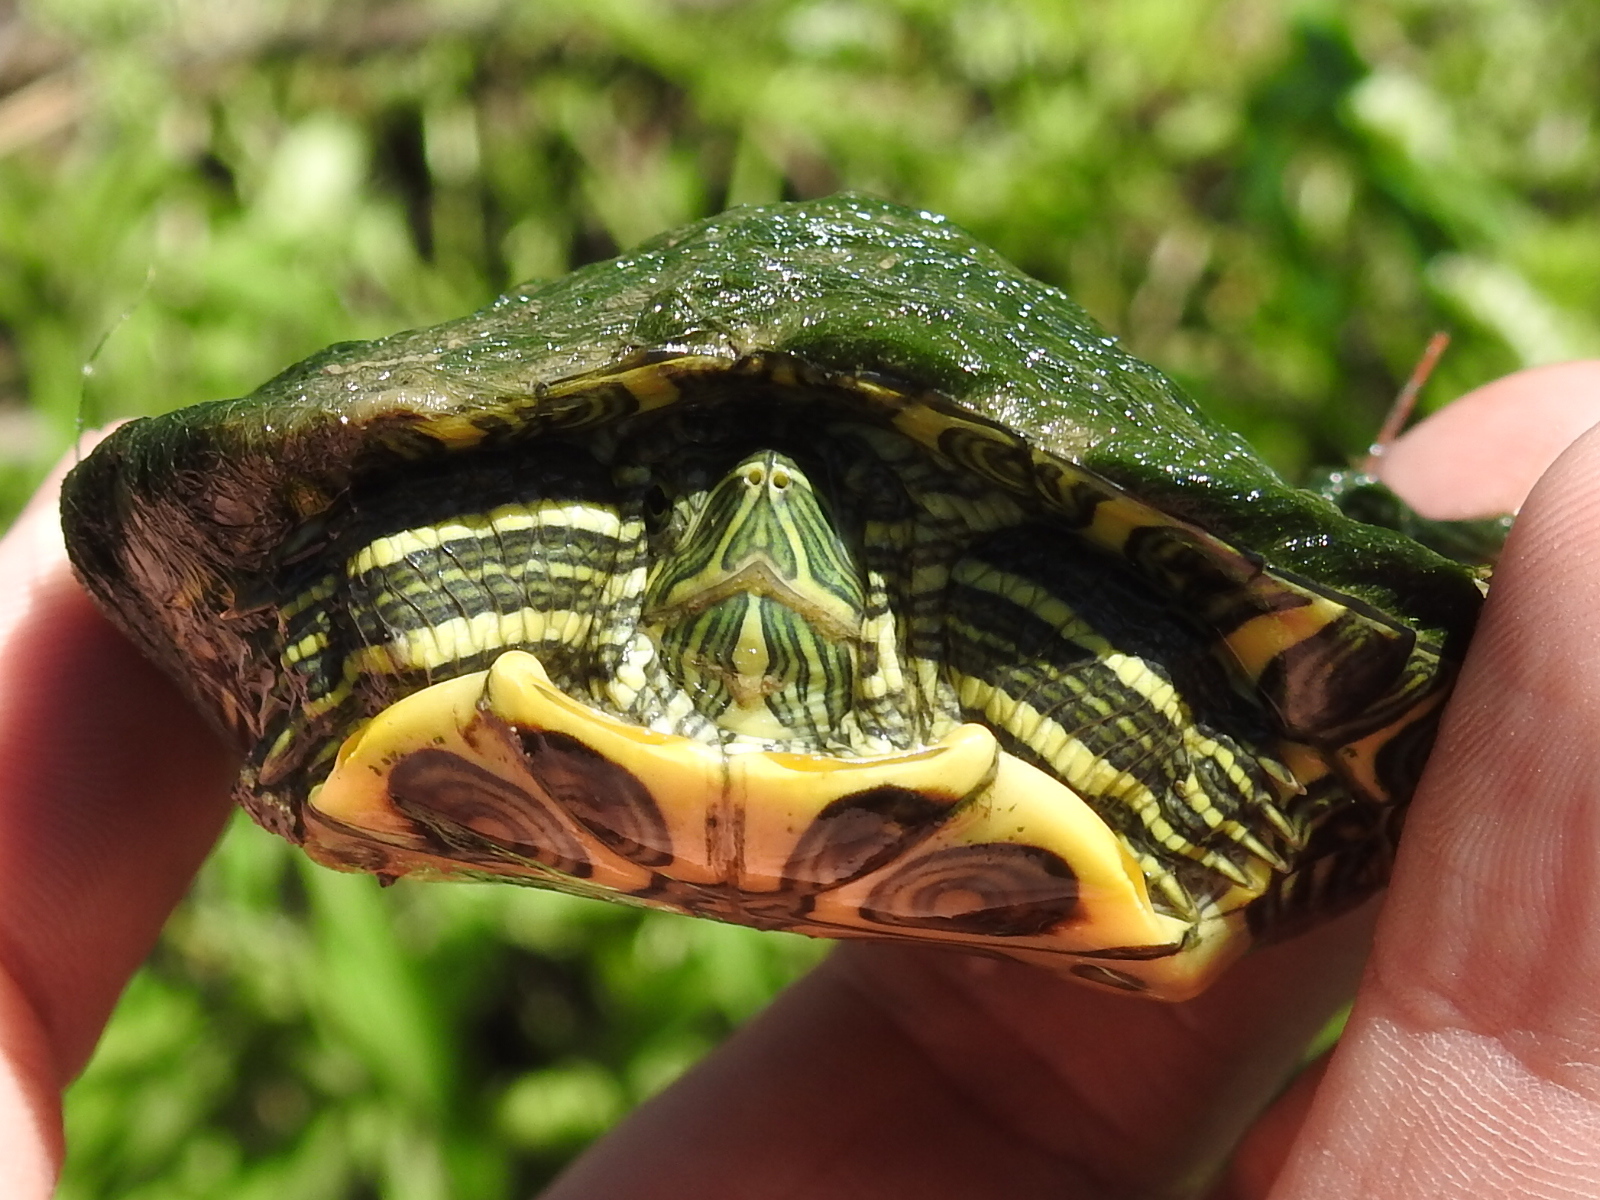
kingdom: Animalia
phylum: Chordata
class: Testudines
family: Emydidae
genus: Trachemys
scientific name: Trachemys scripta
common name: Slider
